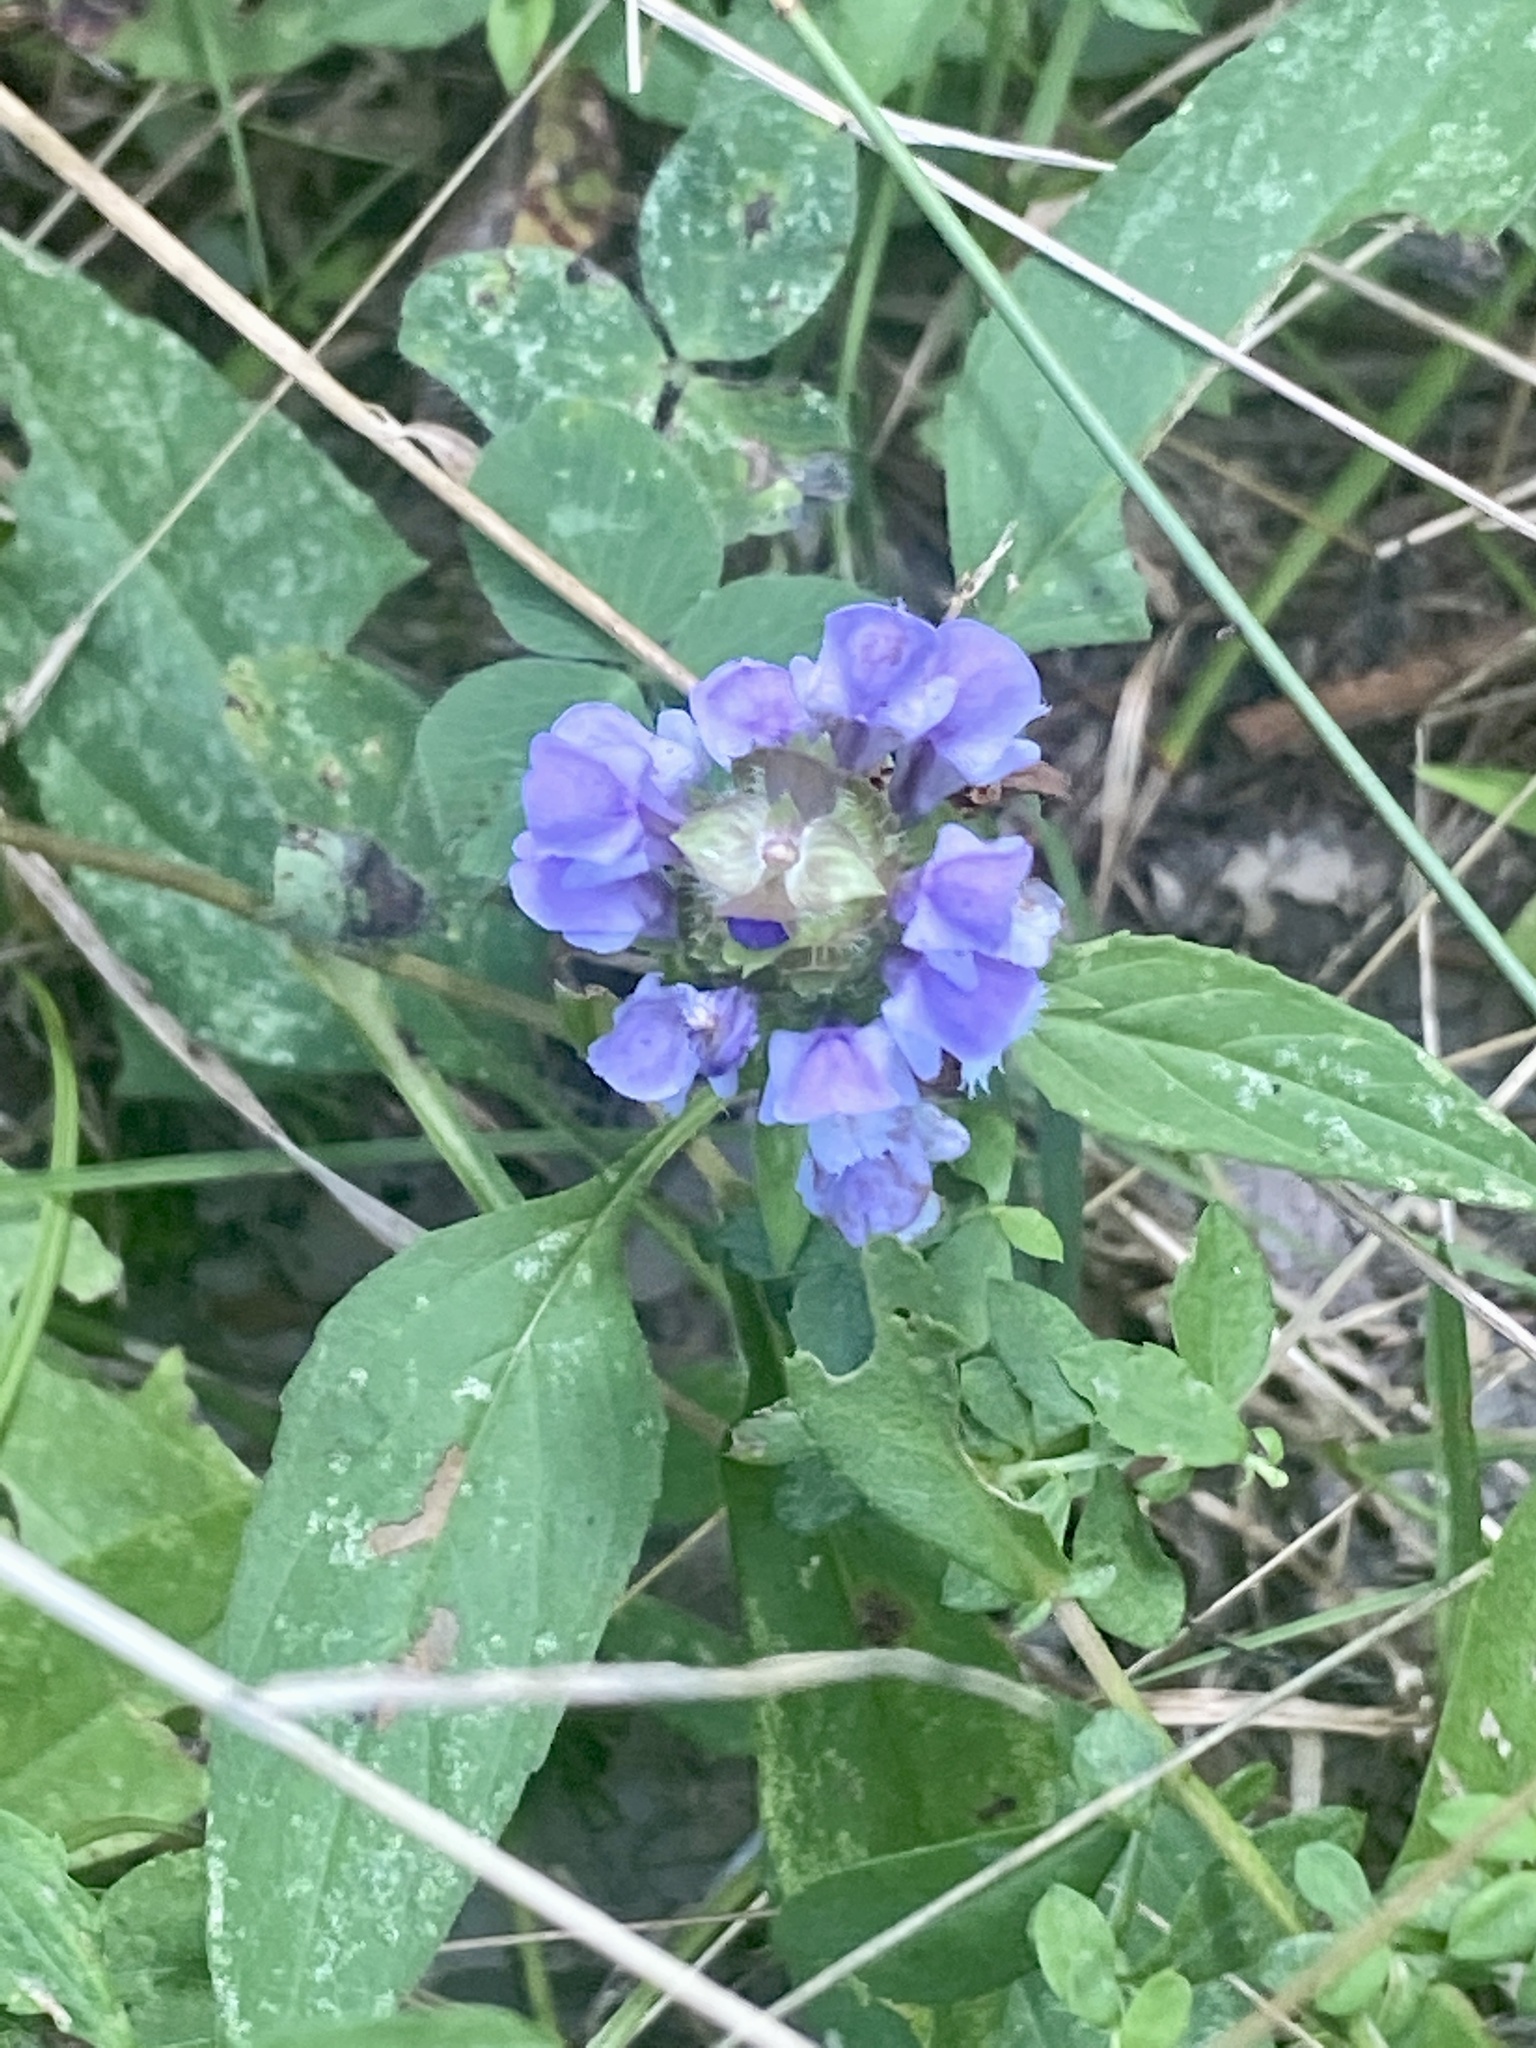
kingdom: Plantae
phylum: Tracheophyta
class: Magnoliopsida
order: Lamiales
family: Lamiaceae
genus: Prunella
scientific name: Prunella vulgaris
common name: Heal-all
